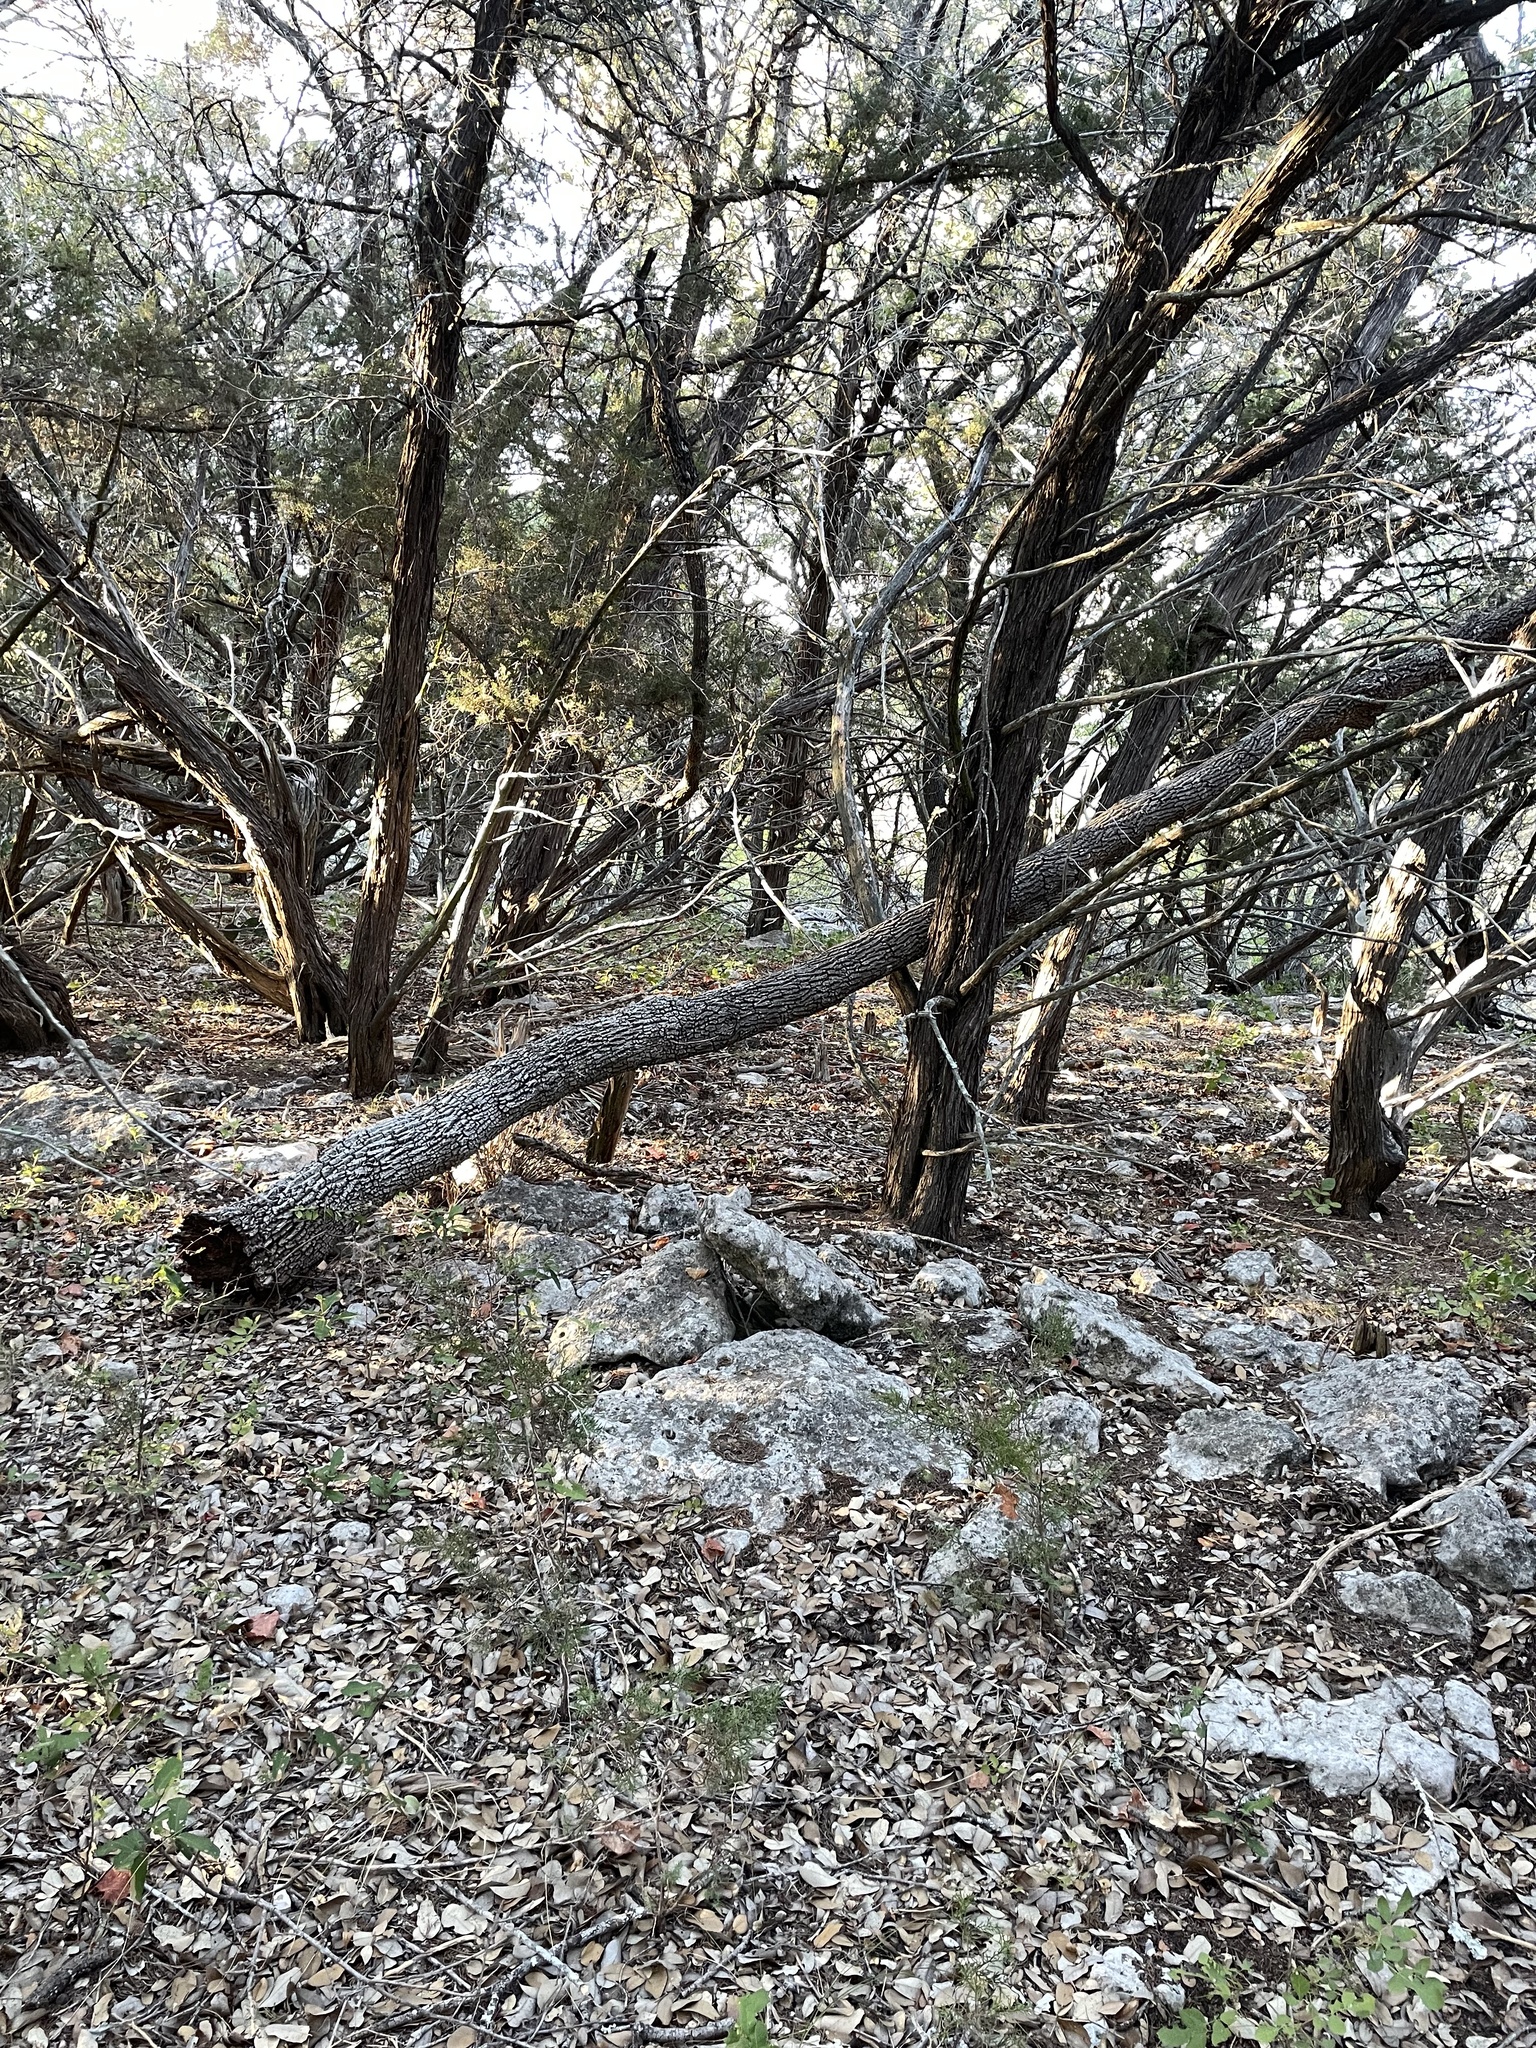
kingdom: Plantae
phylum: Tracheophyta
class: Magnoliopsida
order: Lamiales
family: Oleaceae
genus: Fraxinus
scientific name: Fraxinus albicans
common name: Texas ash
